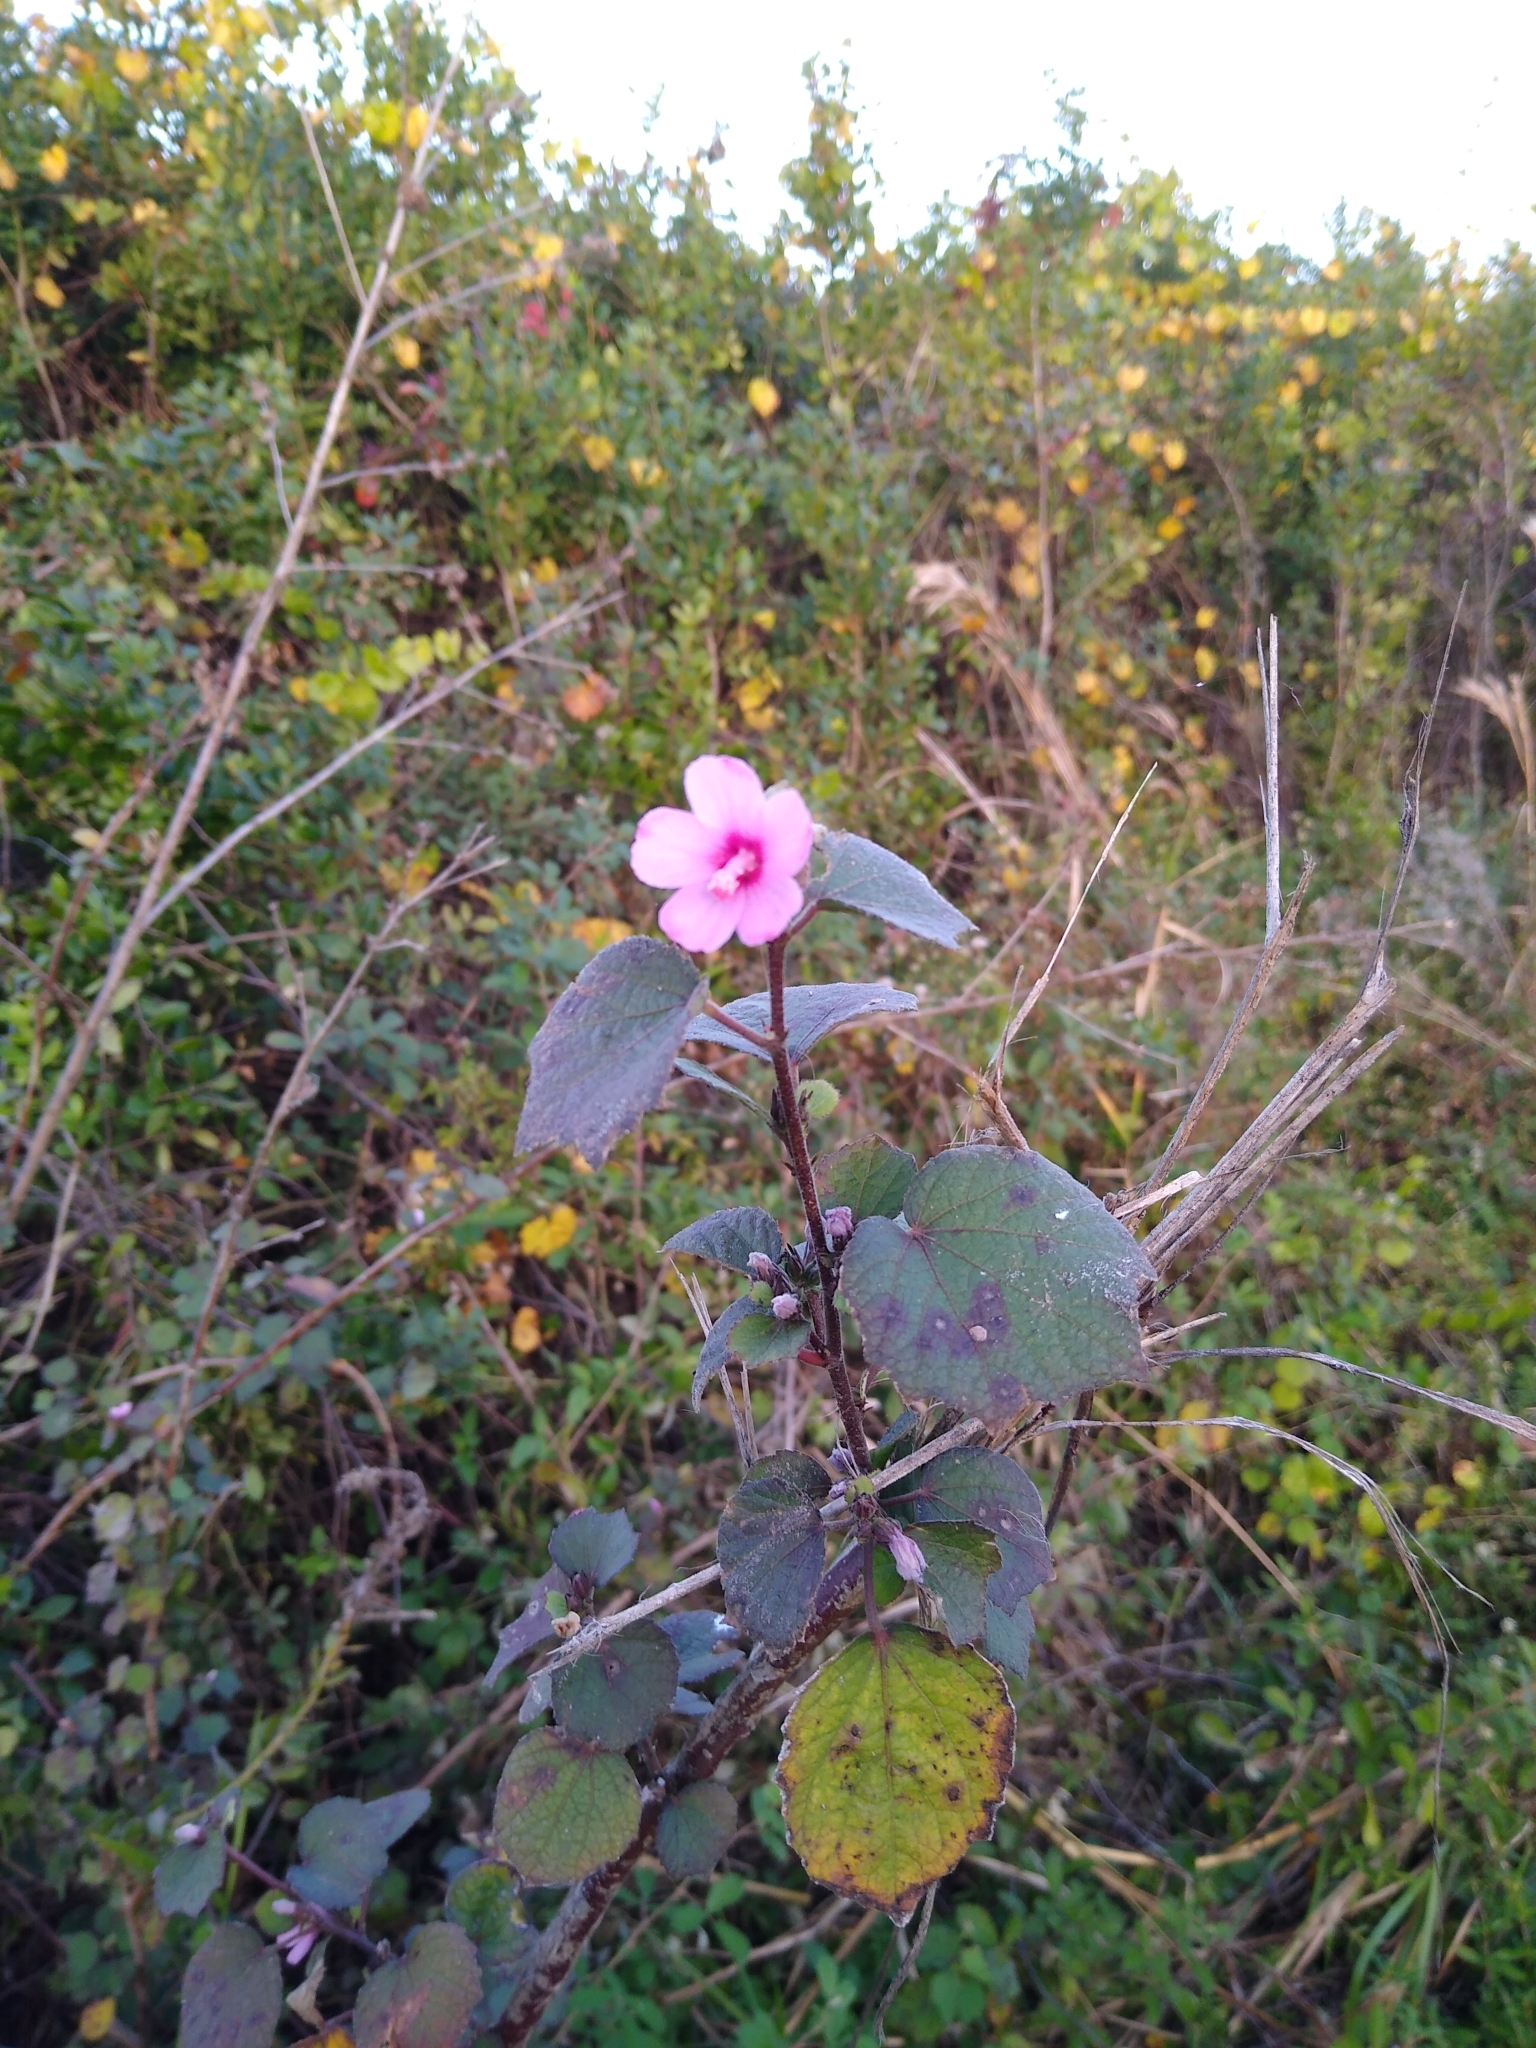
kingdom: Plantae
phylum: Tracheophyta
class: Magnoliopsida
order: Malvales
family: Malvaceae
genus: Urena
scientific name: Urena lobata
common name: Caesarweed
